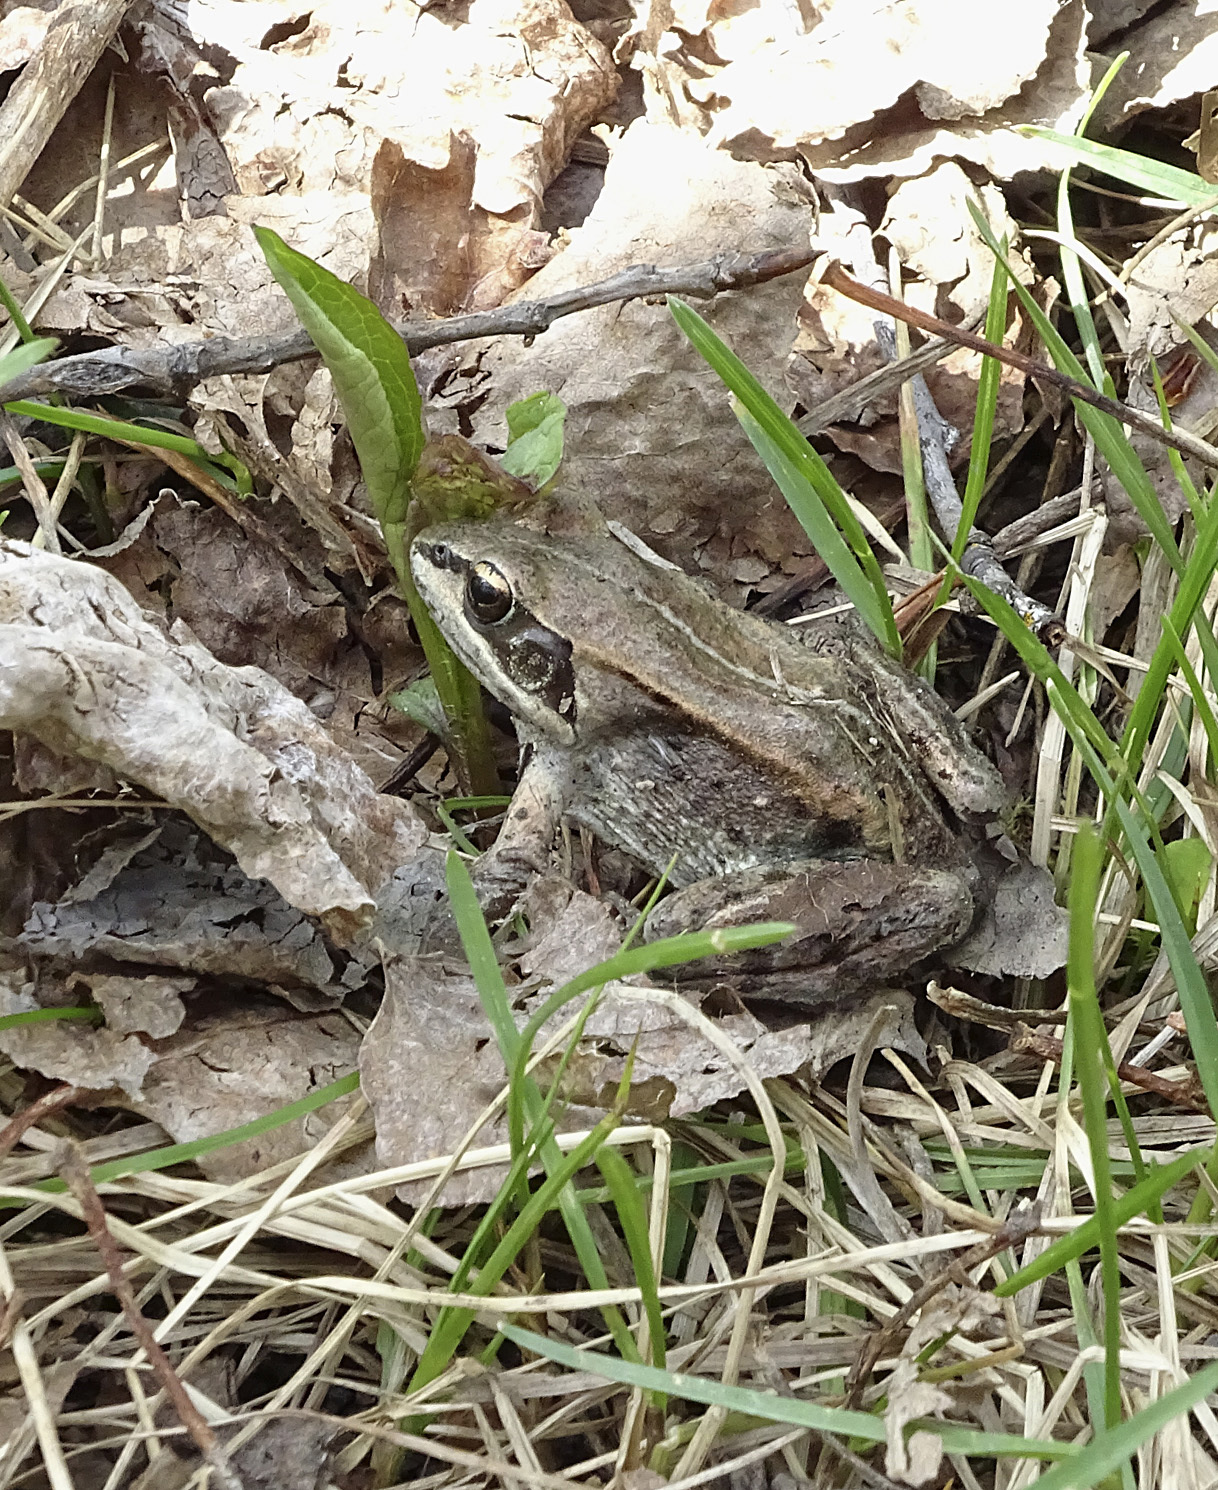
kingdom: Animalia
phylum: Chordata
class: Amphibia
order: Anura
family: Ranidae
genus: Lithobates
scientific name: Lithobates sylvaticus
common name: Wood frog
